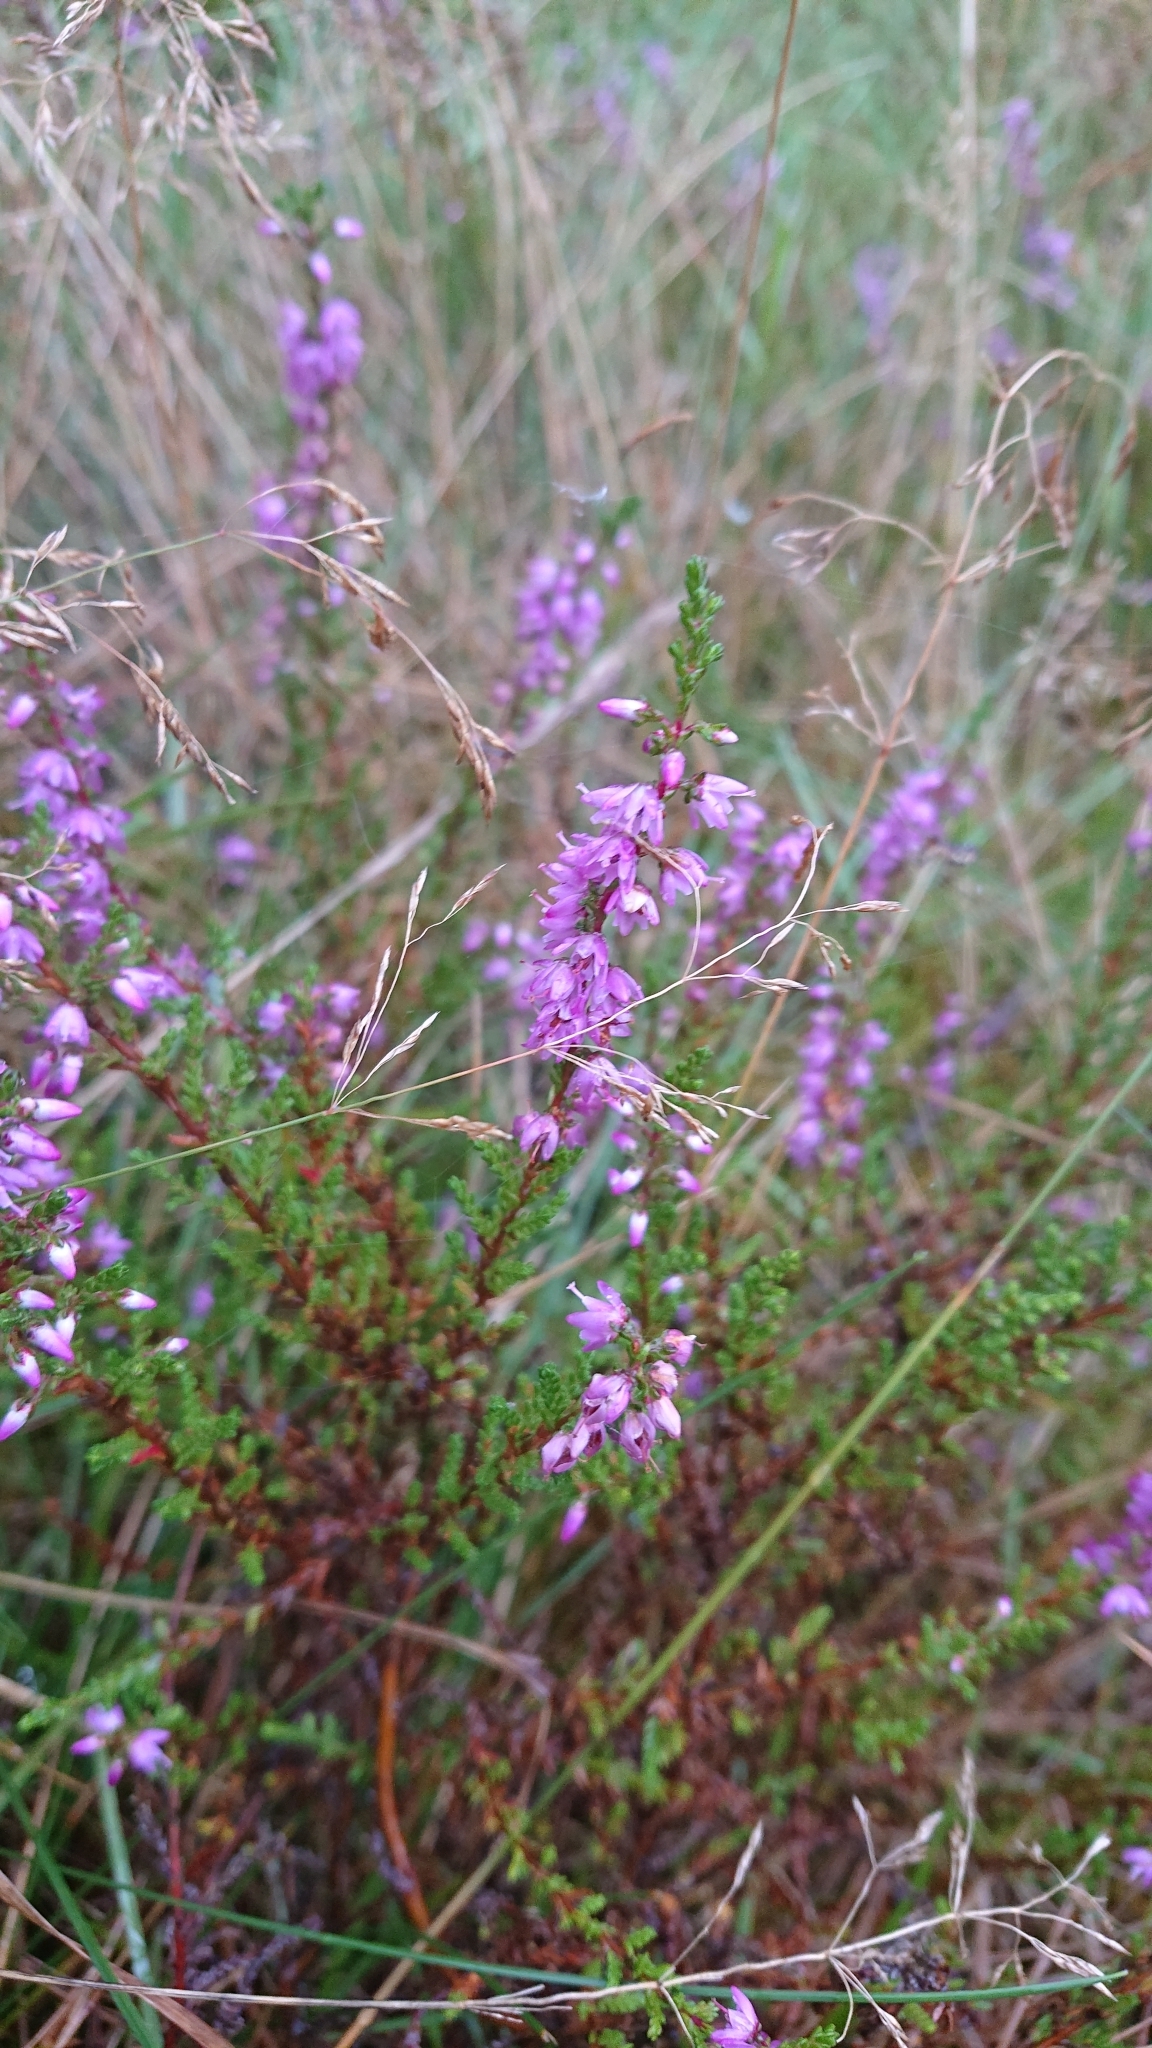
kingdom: Plantae
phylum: Tracheophyta
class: Magnoliopsida
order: Ericales
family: Ericaceae
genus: Calluna
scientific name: Calluna vulgaris
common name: Heather
